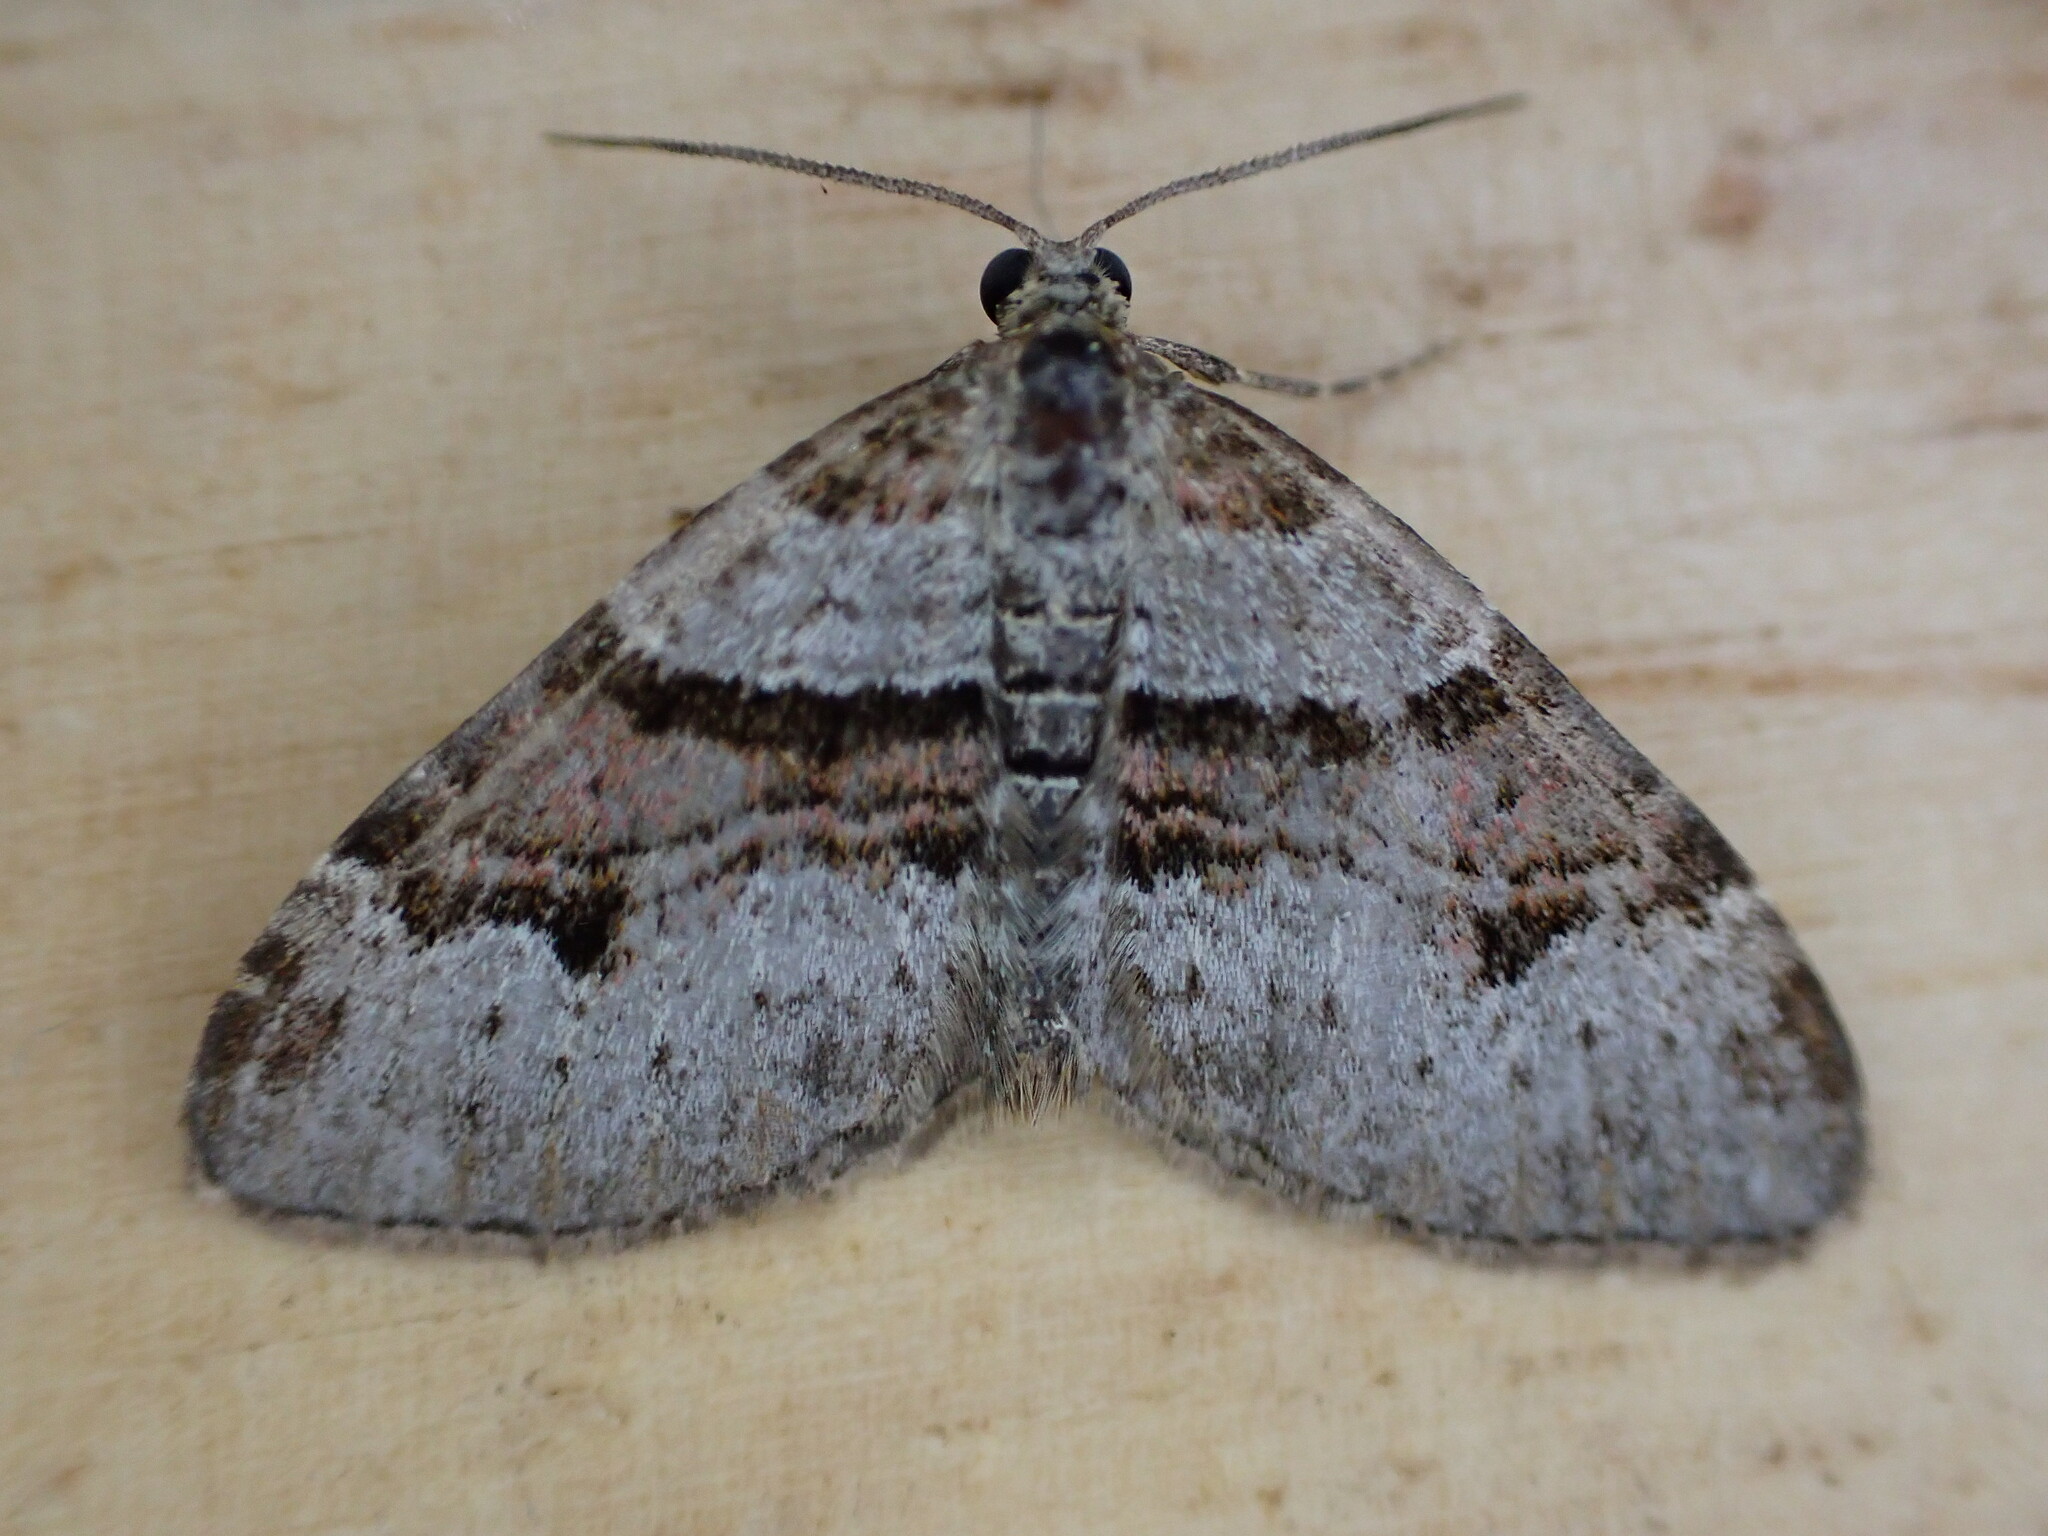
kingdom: Animalia
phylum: Arthropoda
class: Insecta
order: Lepidoptera
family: Geometridae
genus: Xanthorhoe
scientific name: Xanthorhoe designata
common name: Flame carpet
